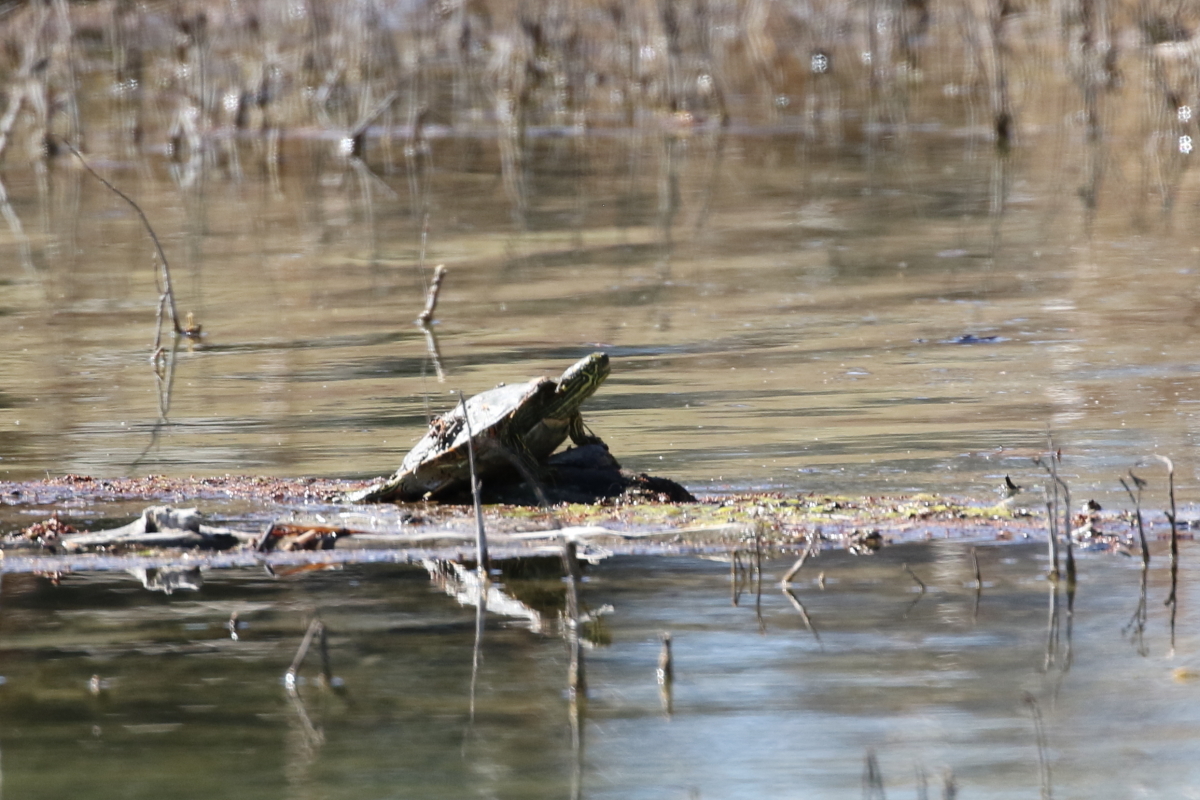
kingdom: Animalia
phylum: Chordata
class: Testudines
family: Emydidae
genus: Pseudemys
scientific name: Pseudemys texana
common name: Texas river cooter
